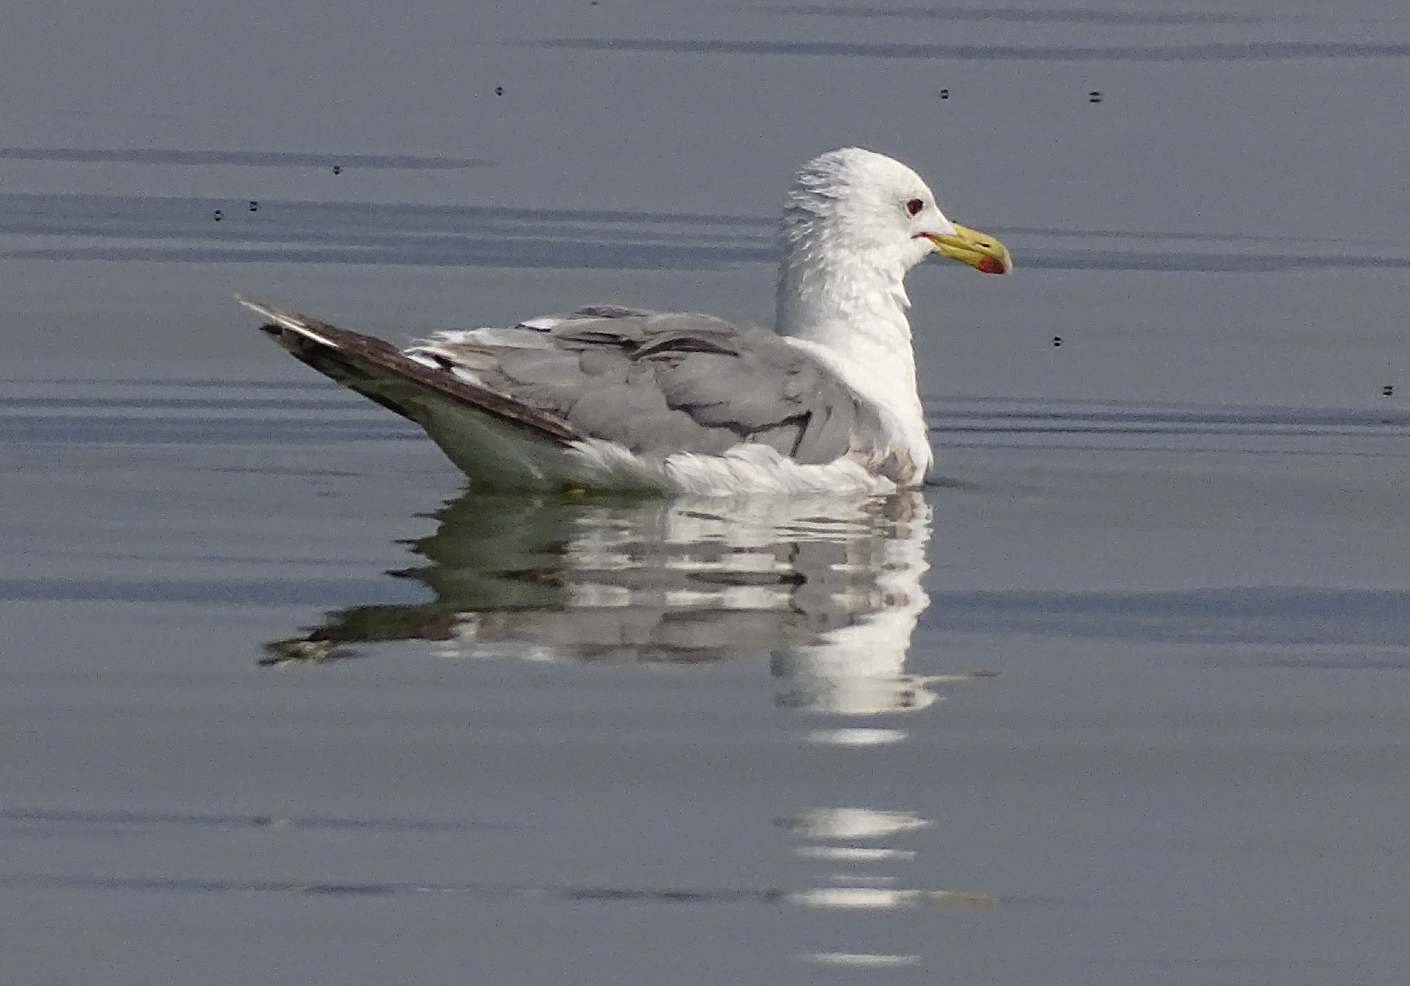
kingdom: Animalia
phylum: Chordata
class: Aves
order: Charadriiformes
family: Laridae
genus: Larus
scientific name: Larus californicus
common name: California gull
